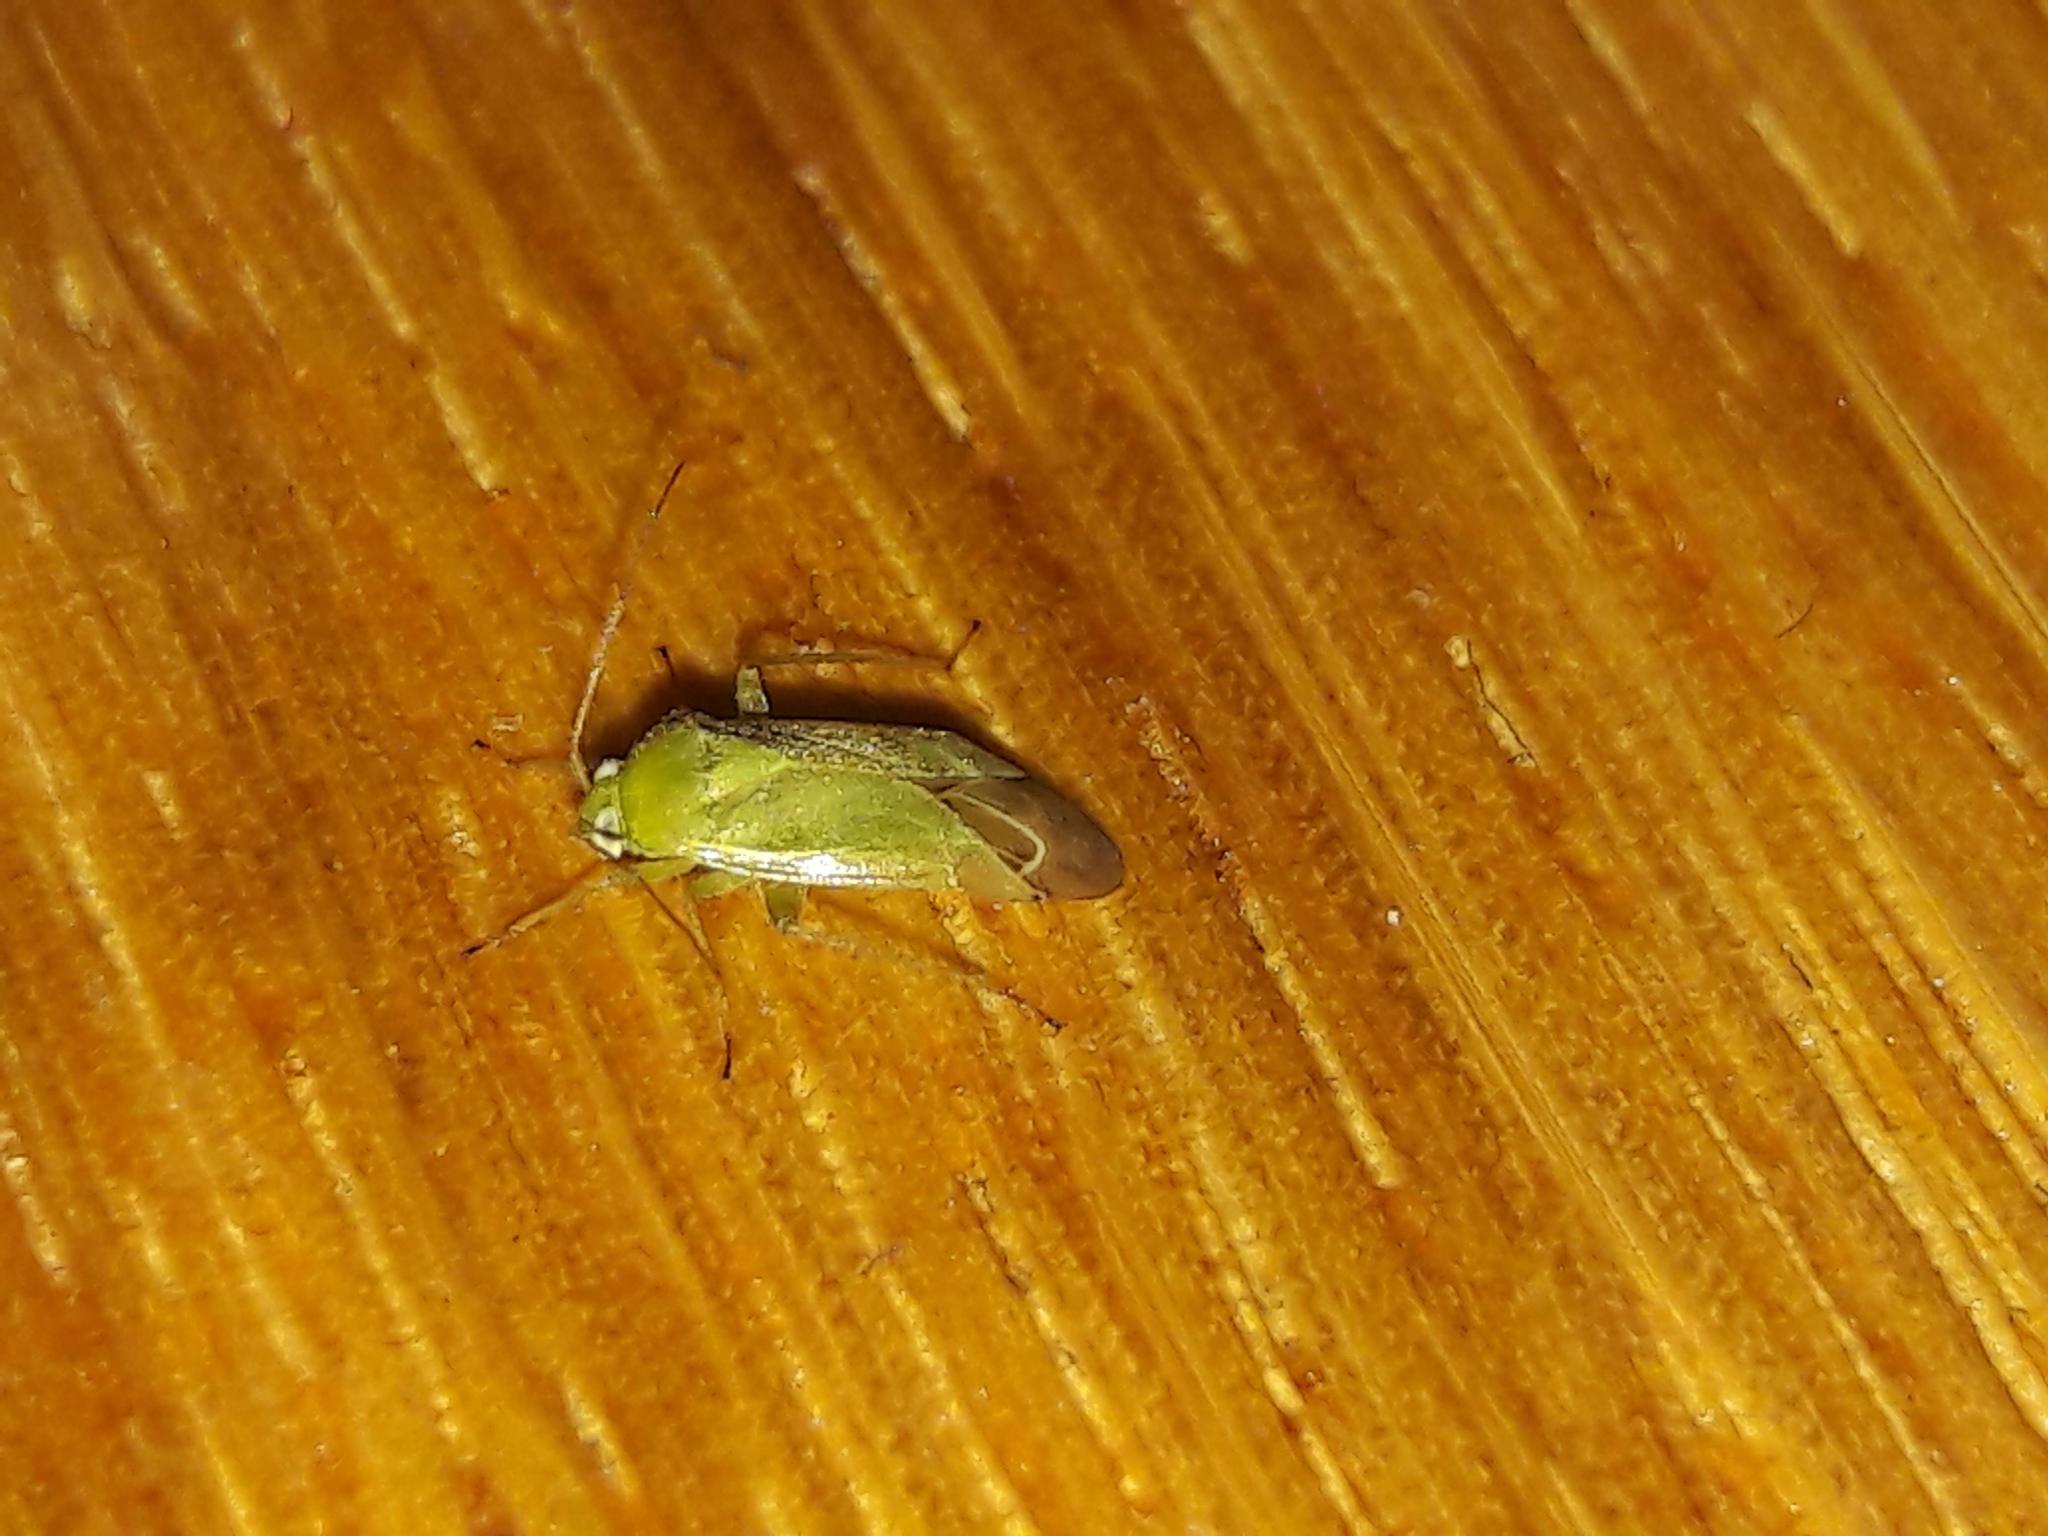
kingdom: Animalia
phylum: Arthropoda
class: Insecta
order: Hemiptera
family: Miridae
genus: Taylorilygus
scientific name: Taylorilygus apicalis
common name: Plant bug
